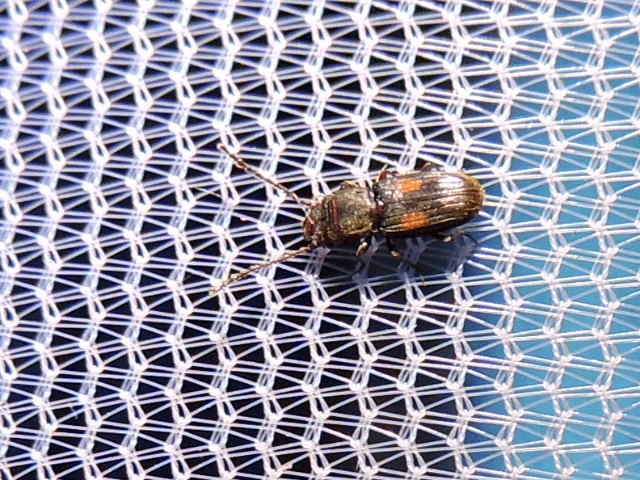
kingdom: Animalia
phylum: Arthropoda
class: Insecta
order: Coleoptera
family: Laemophloeidae
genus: Laemophloeus
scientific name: Laemophloeus biguttatus
